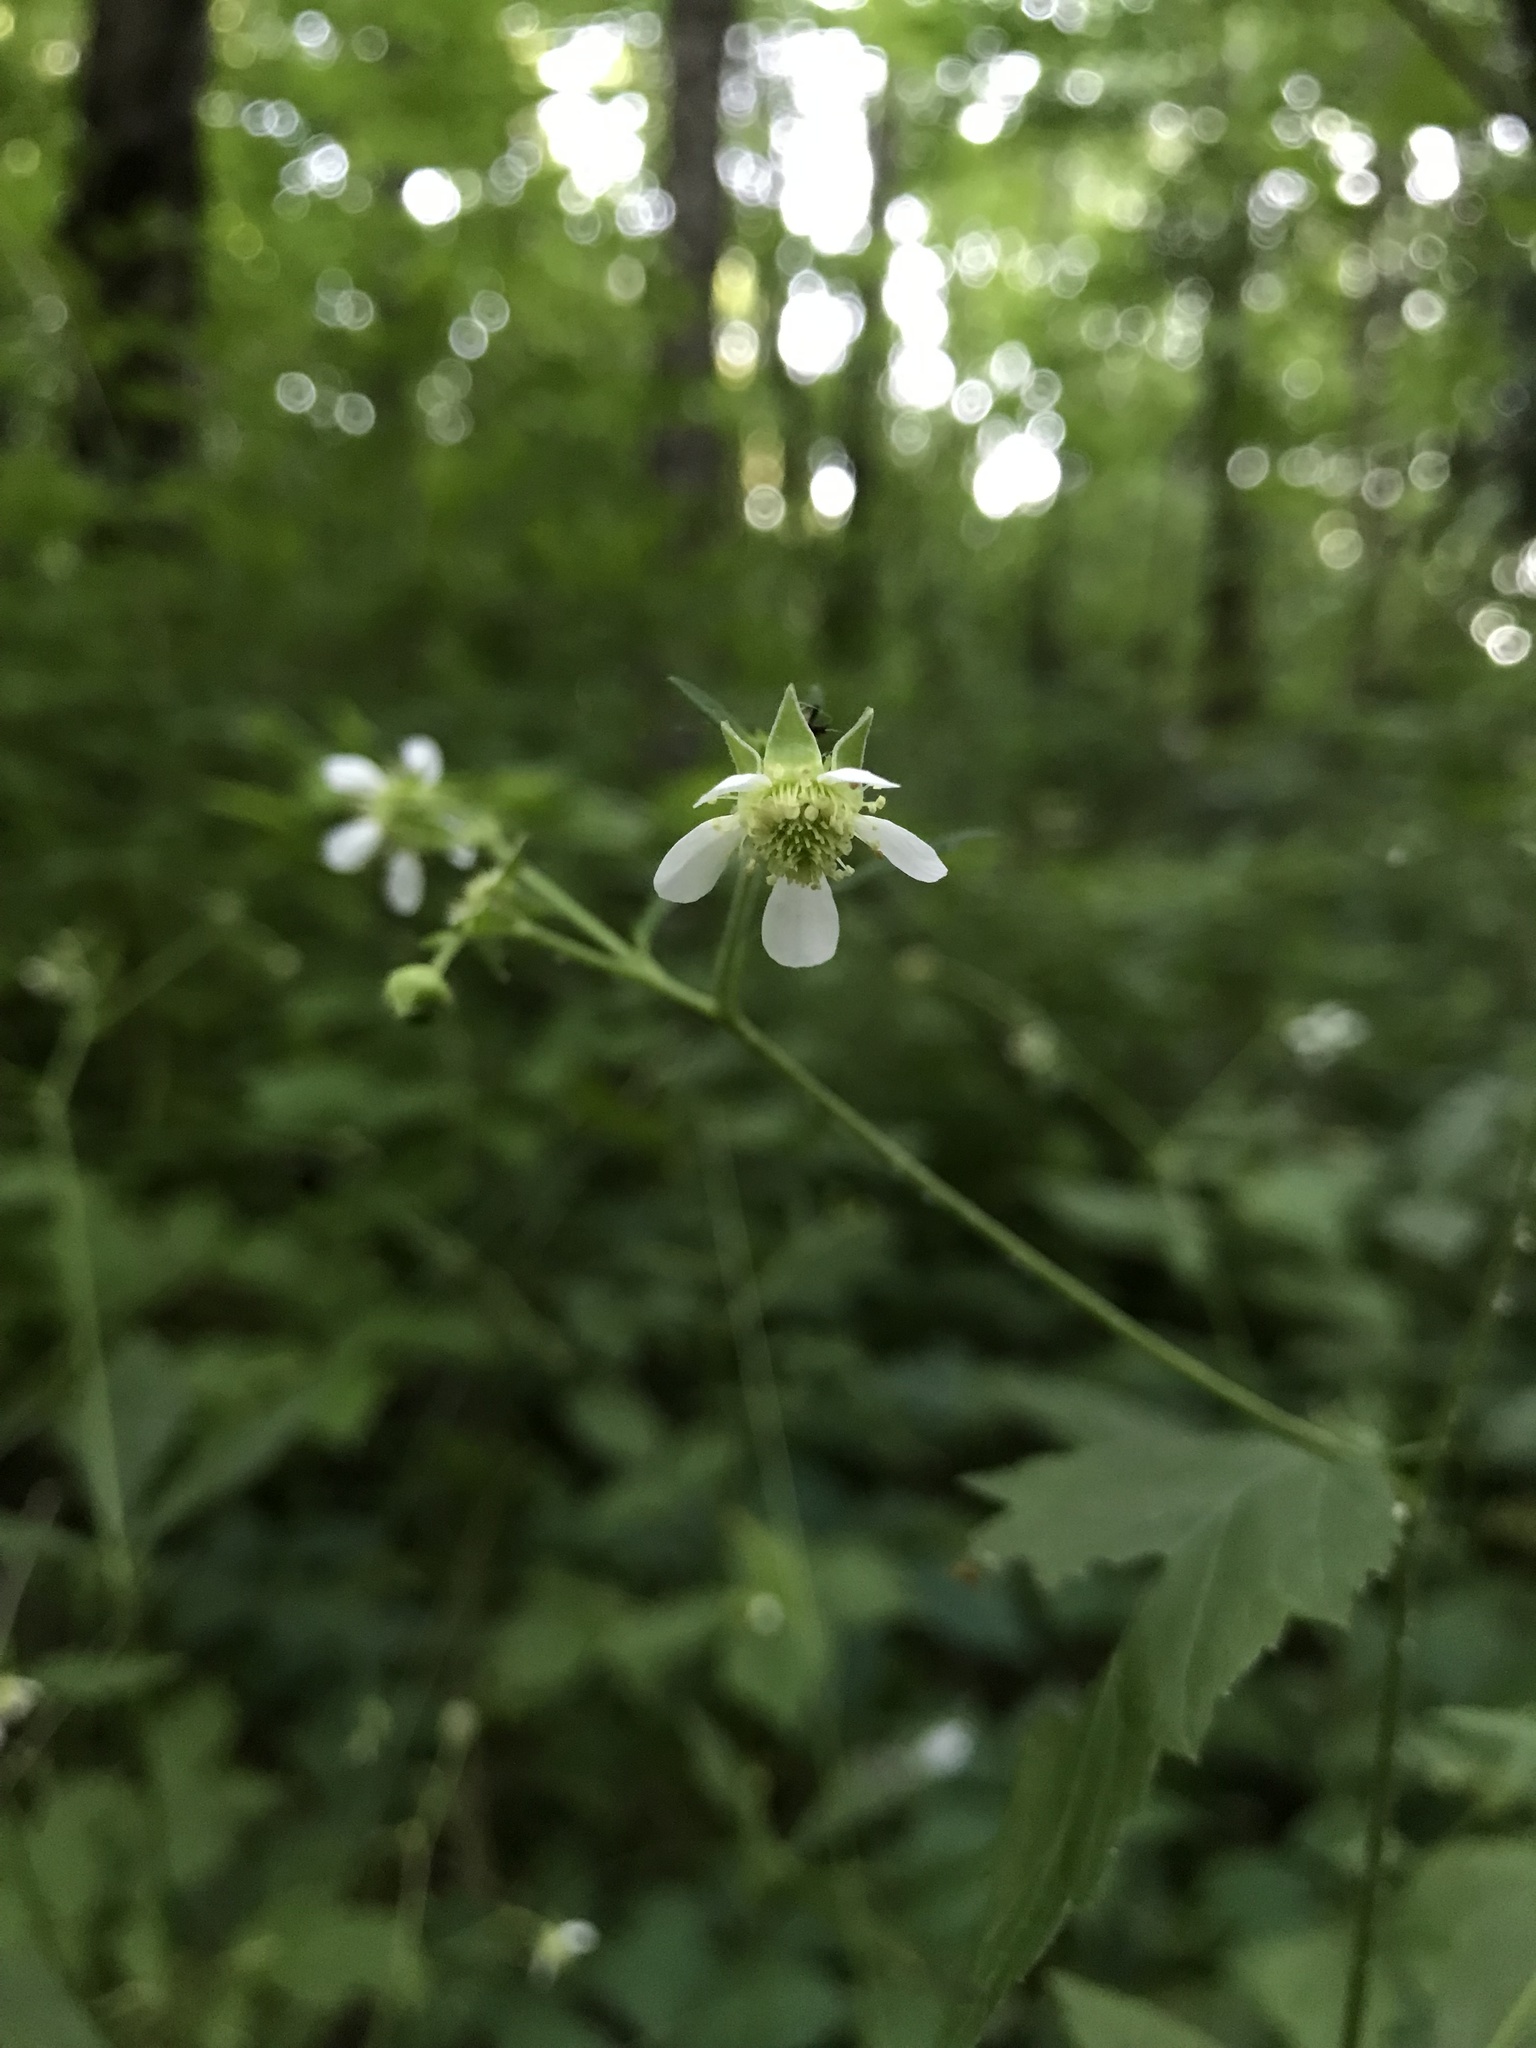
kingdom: Plantae
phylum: Tracheophyta
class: Magnoliopsida
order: Rosales
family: Rosaceae
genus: Geum
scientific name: Geum canadense
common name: White avens
